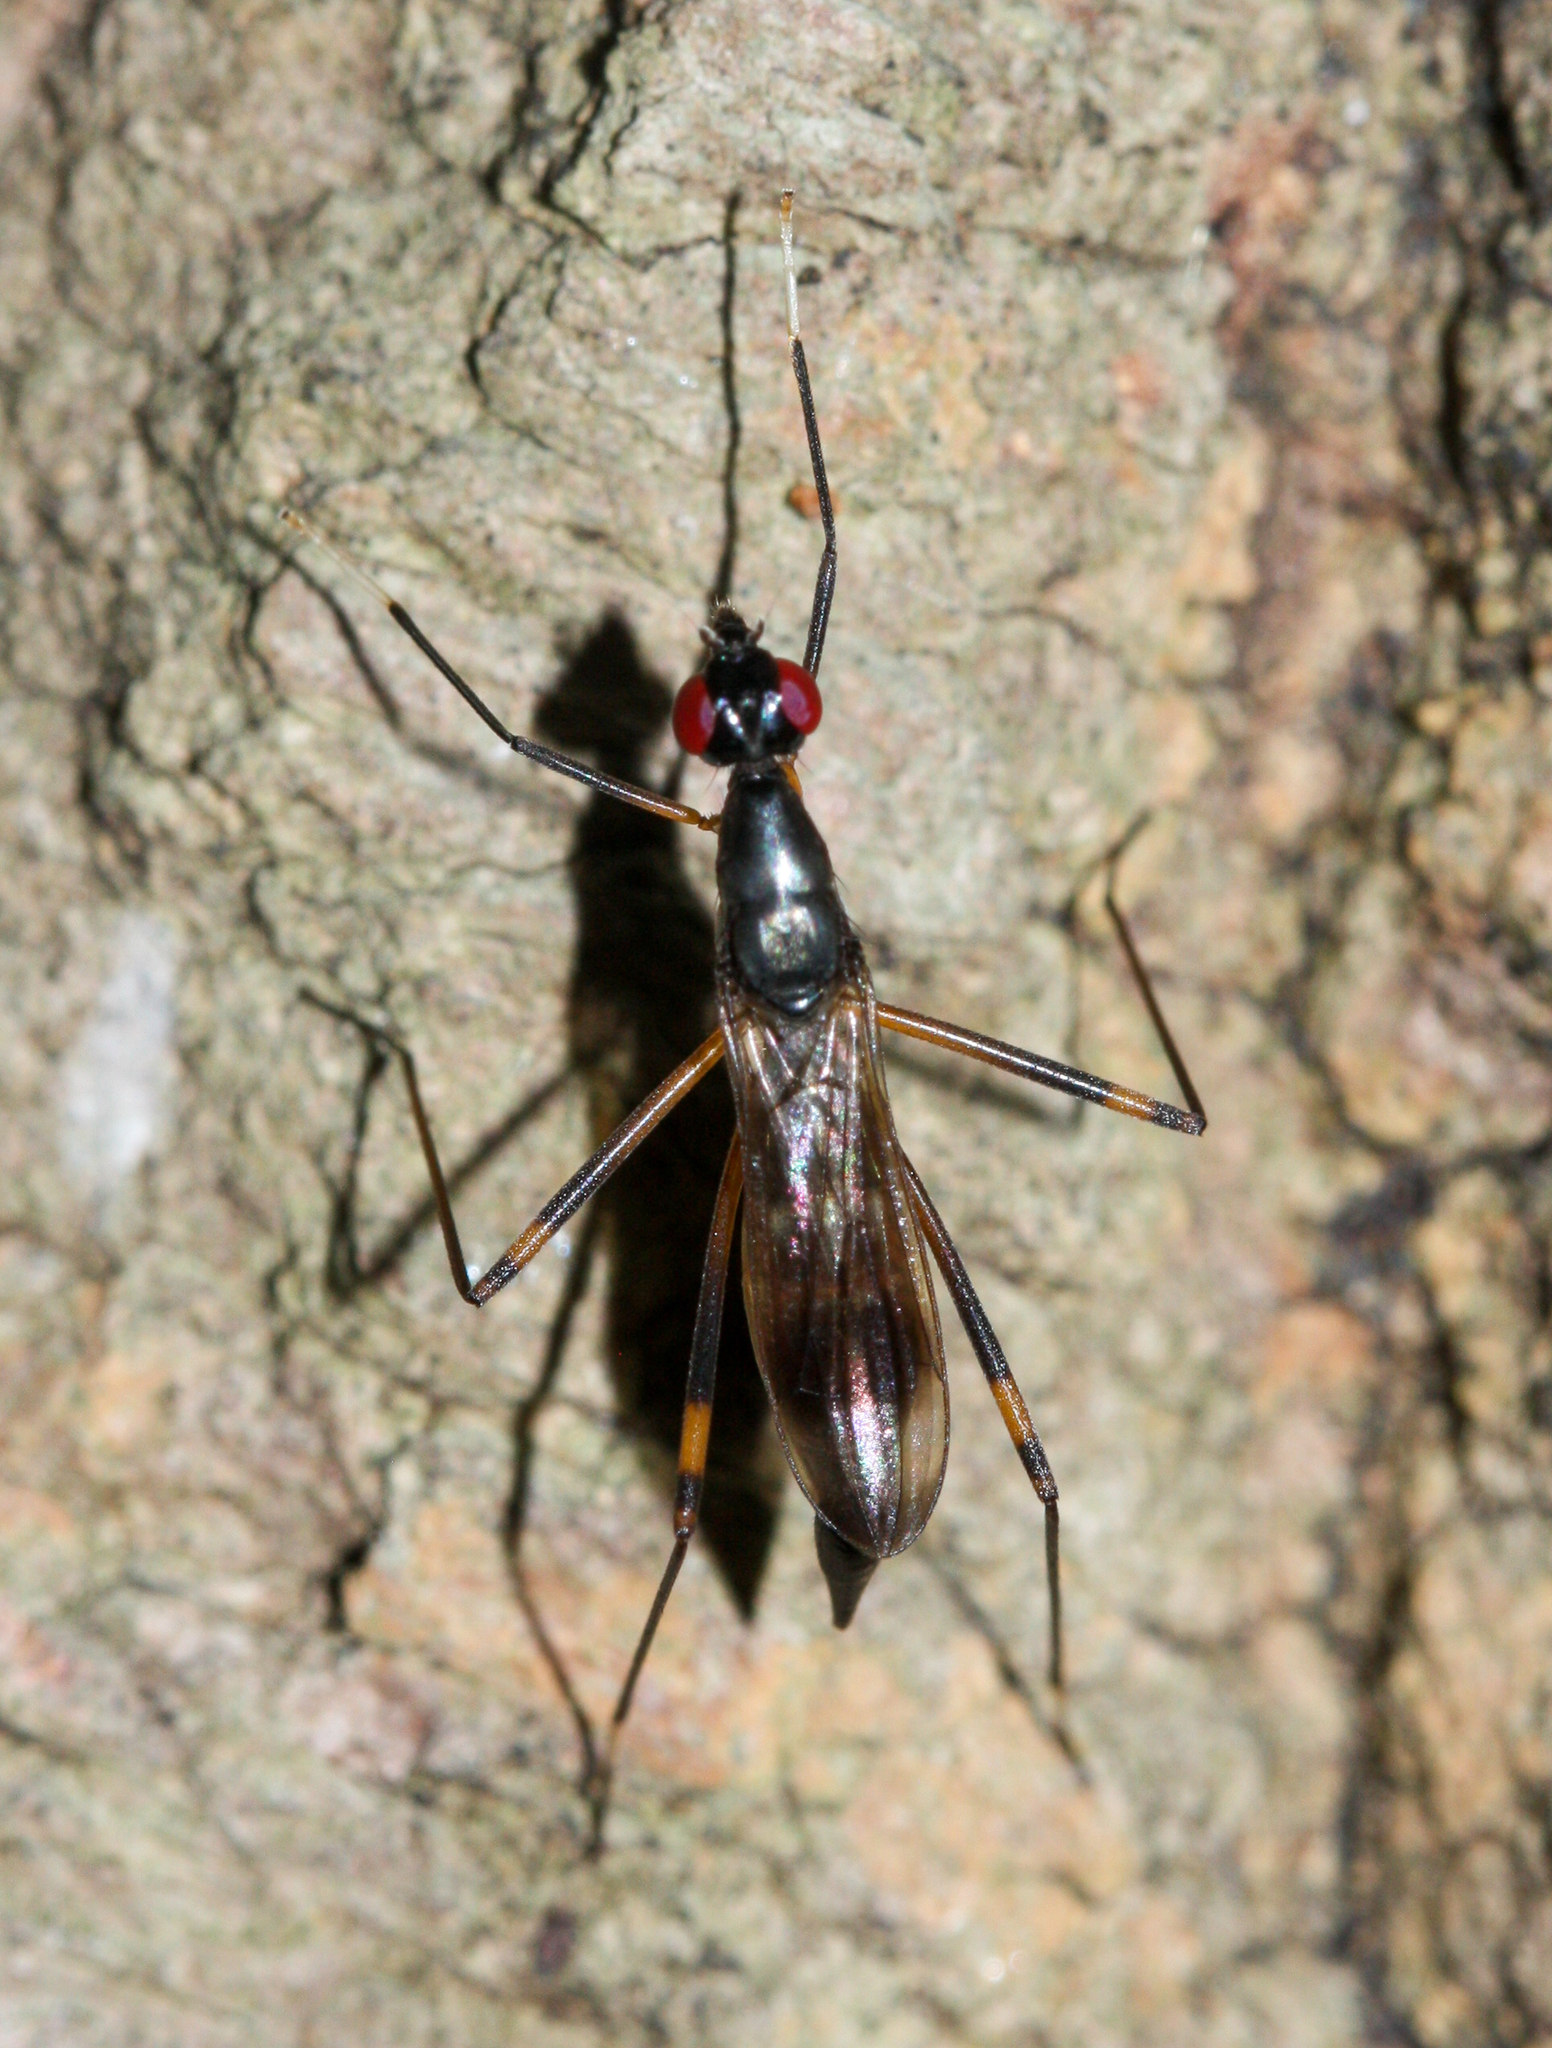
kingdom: Animalia
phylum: Arthropoda
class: Insecta
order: Diptera
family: Micropezidae
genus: Rainieria
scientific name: Rainieria antennaepes
